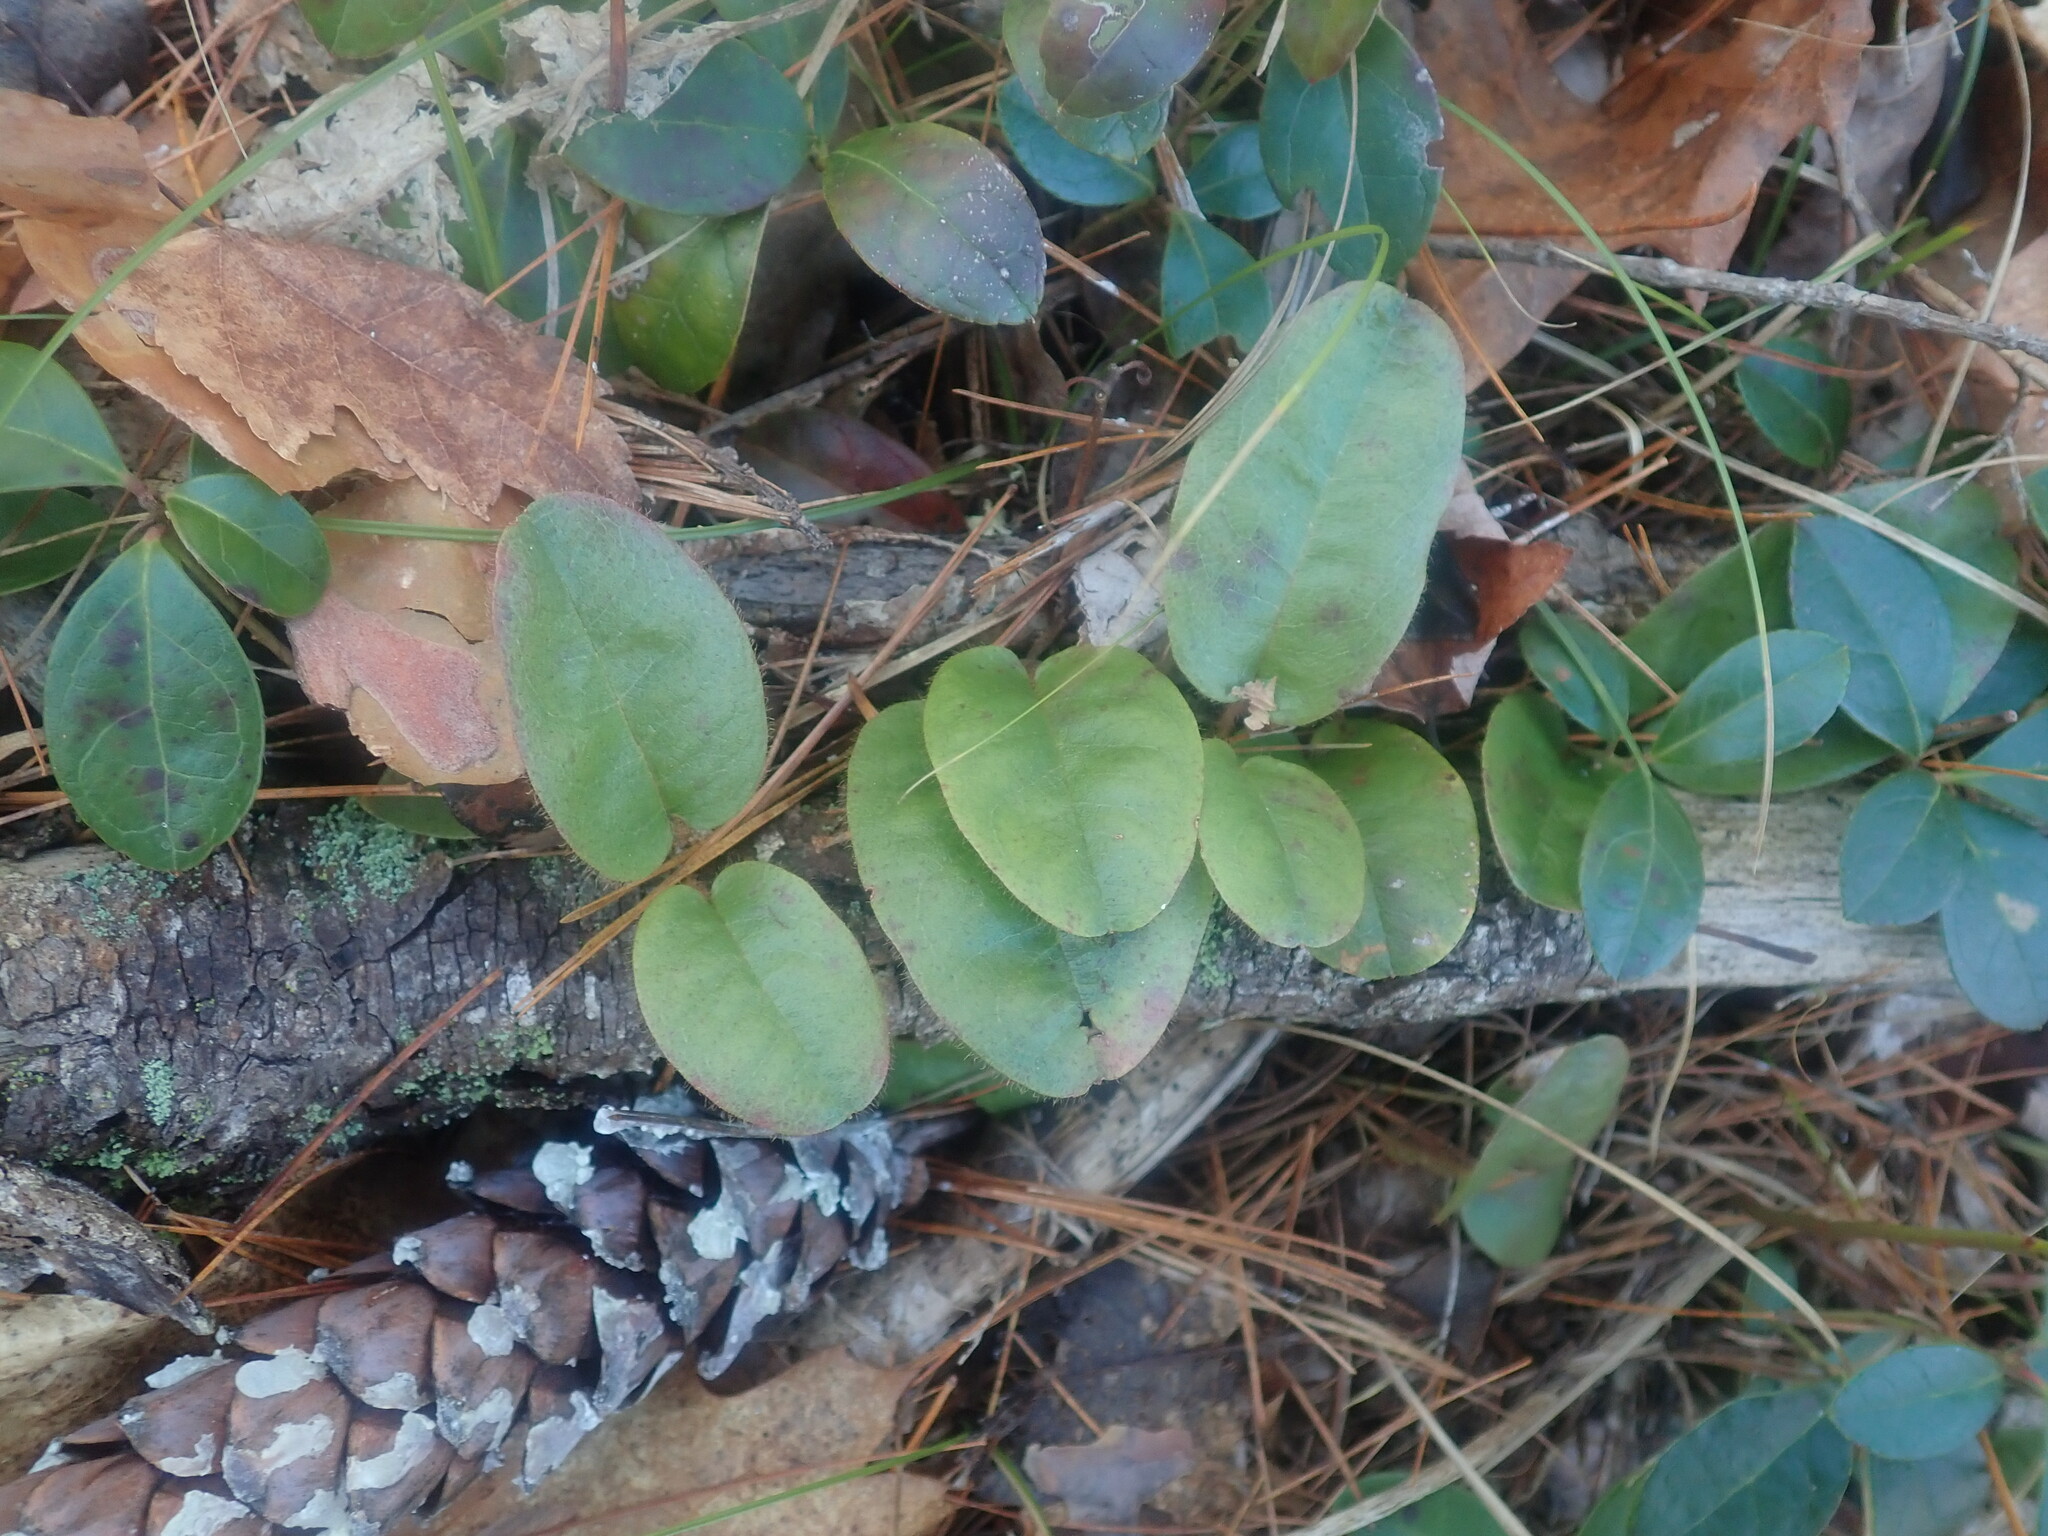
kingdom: Plantae
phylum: Tracheophyta
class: Magnoliopsida
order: Ericales
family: Ericaceae
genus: Epigaea
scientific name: Epigaea repens
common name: Gravelroot
